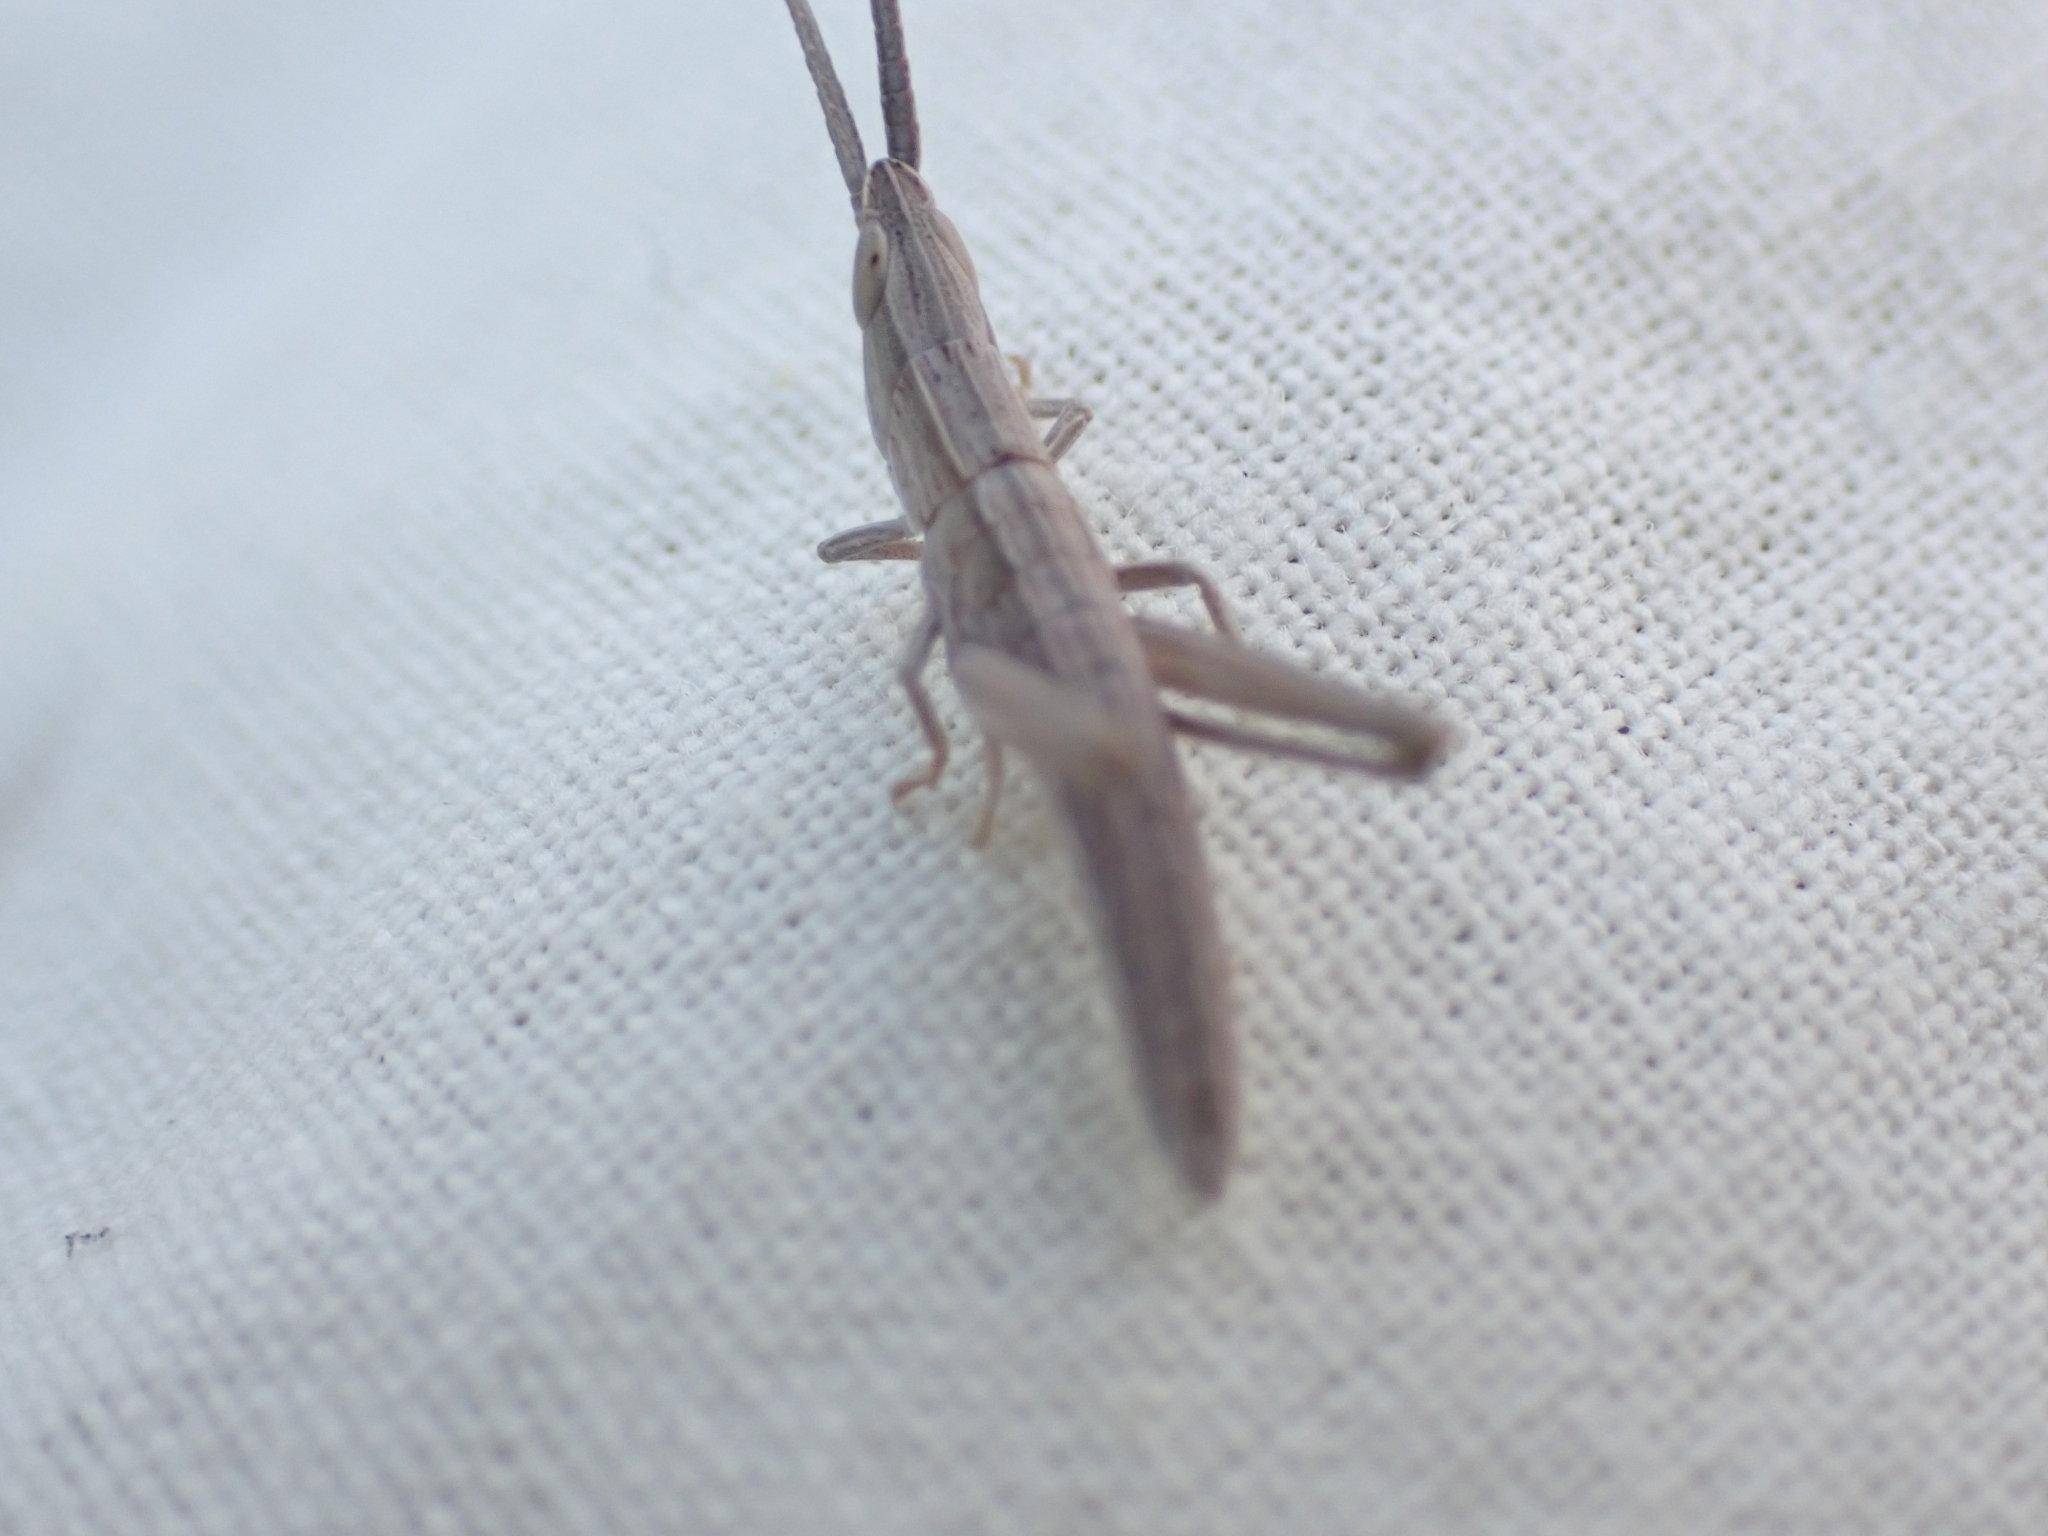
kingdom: Animalia
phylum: Arthropoda
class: Insecta
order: Orthoptera
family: Acrididae
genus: Pseudopomala
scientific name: Pseudopomala brachyptera
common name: Bunchgrass grasshopper
